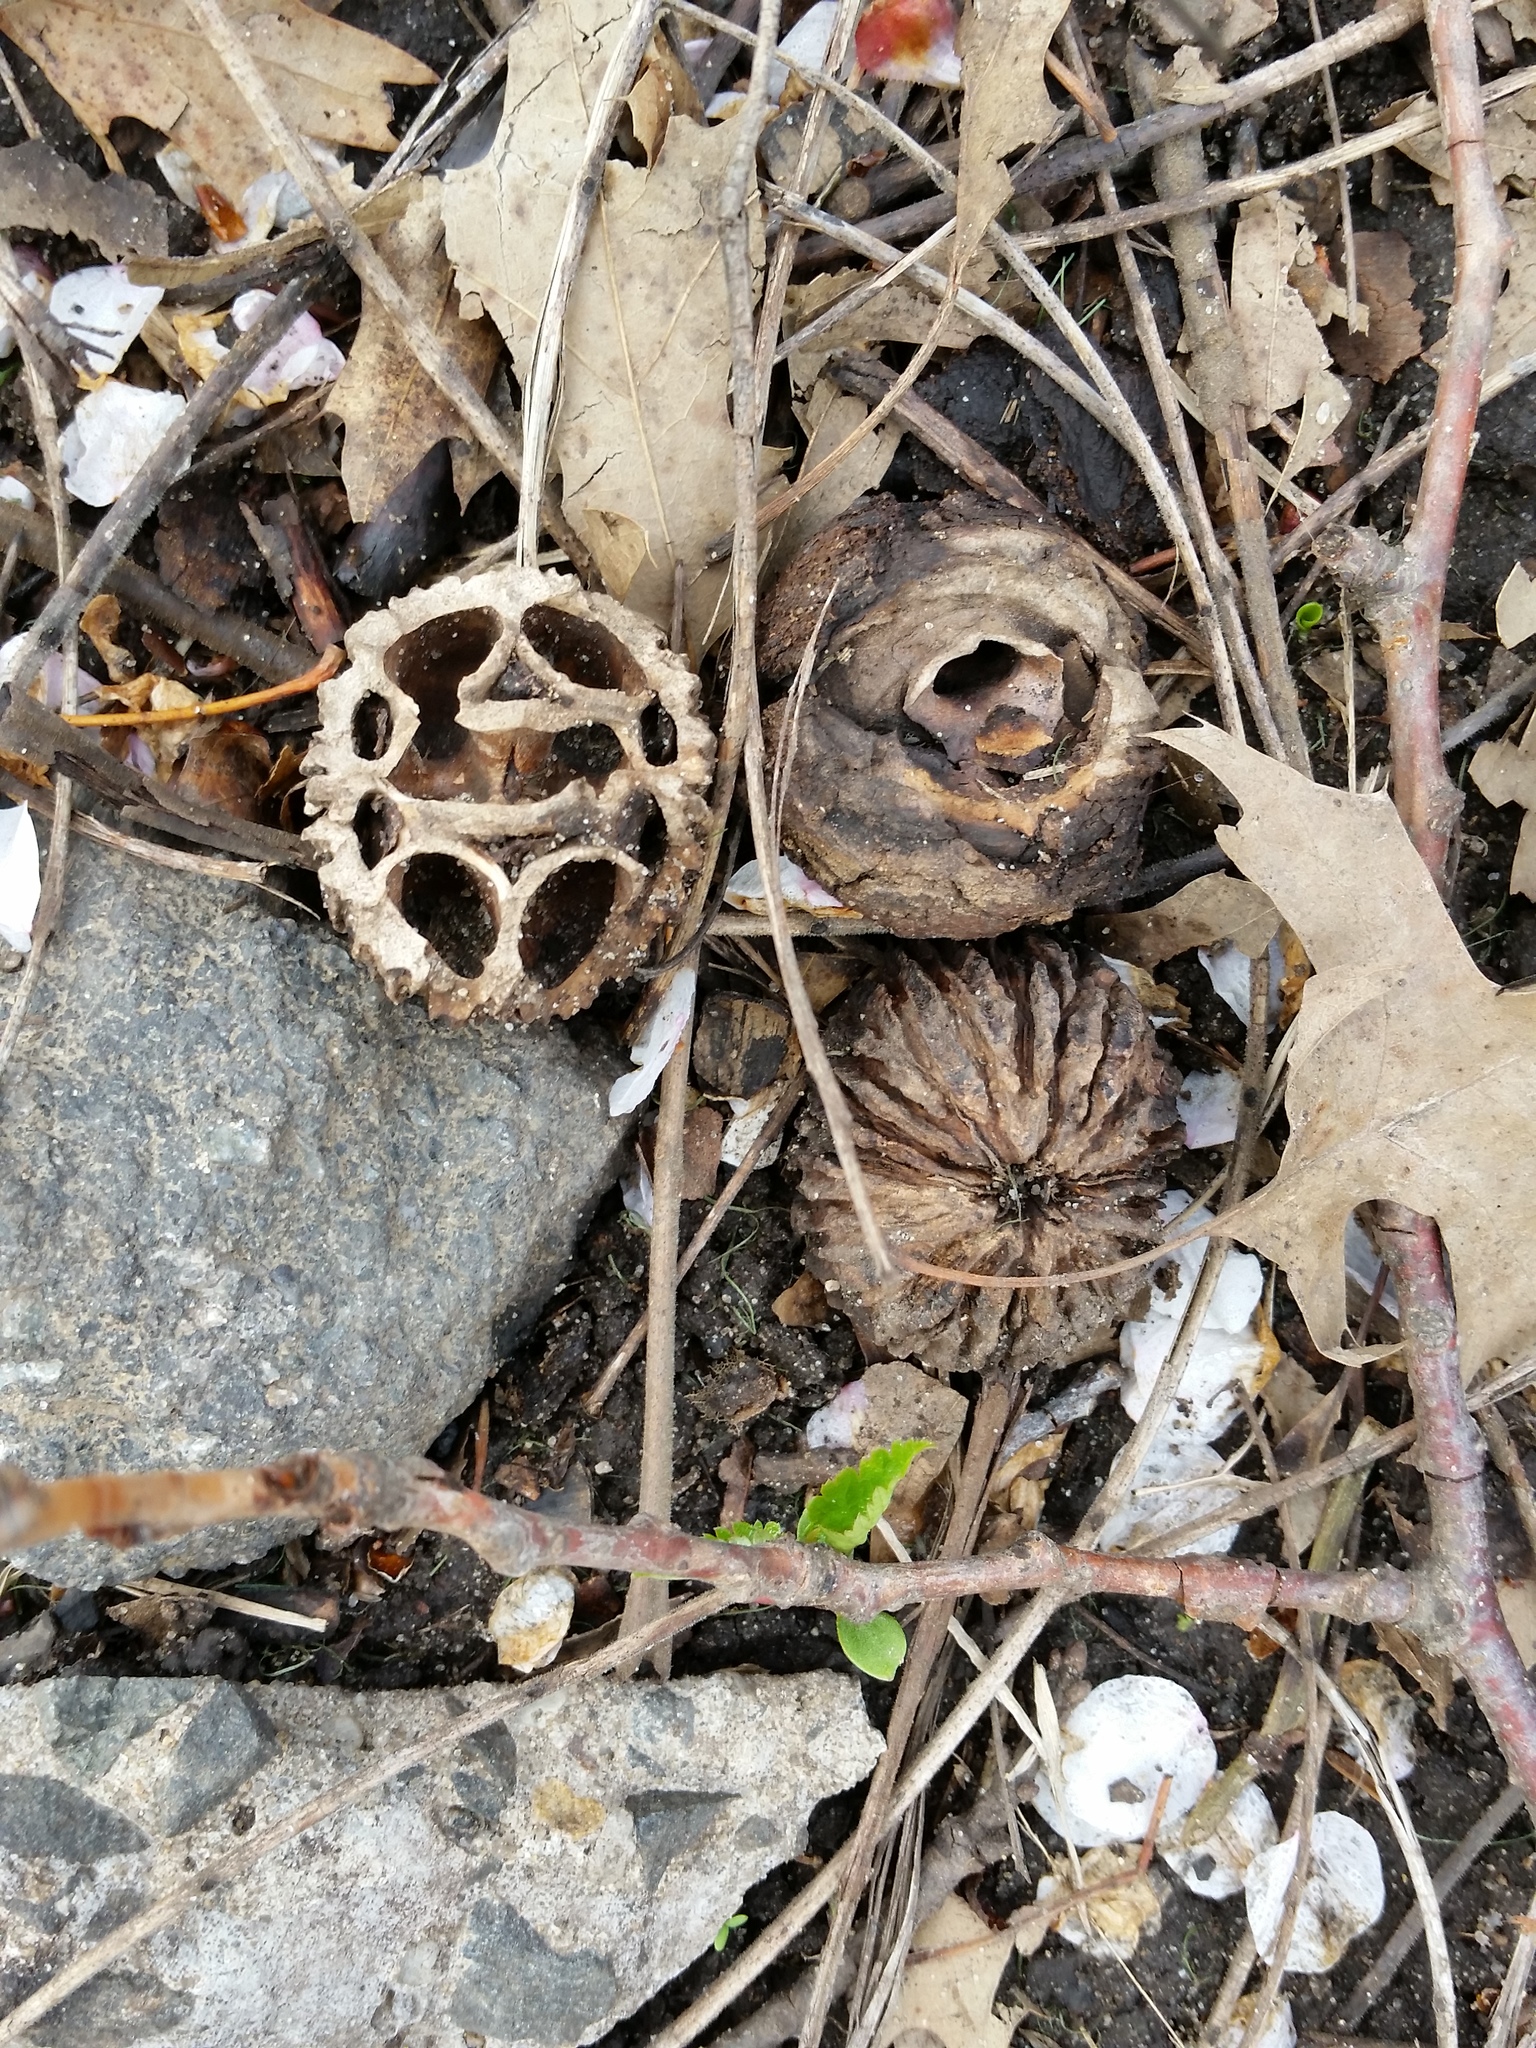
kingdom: Plantae
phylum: Tracheophyta
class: Magnoliopsida
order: Fagales
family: Juglandaceae
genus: Juglans
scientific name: Juglans nigra
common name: Black walnut
